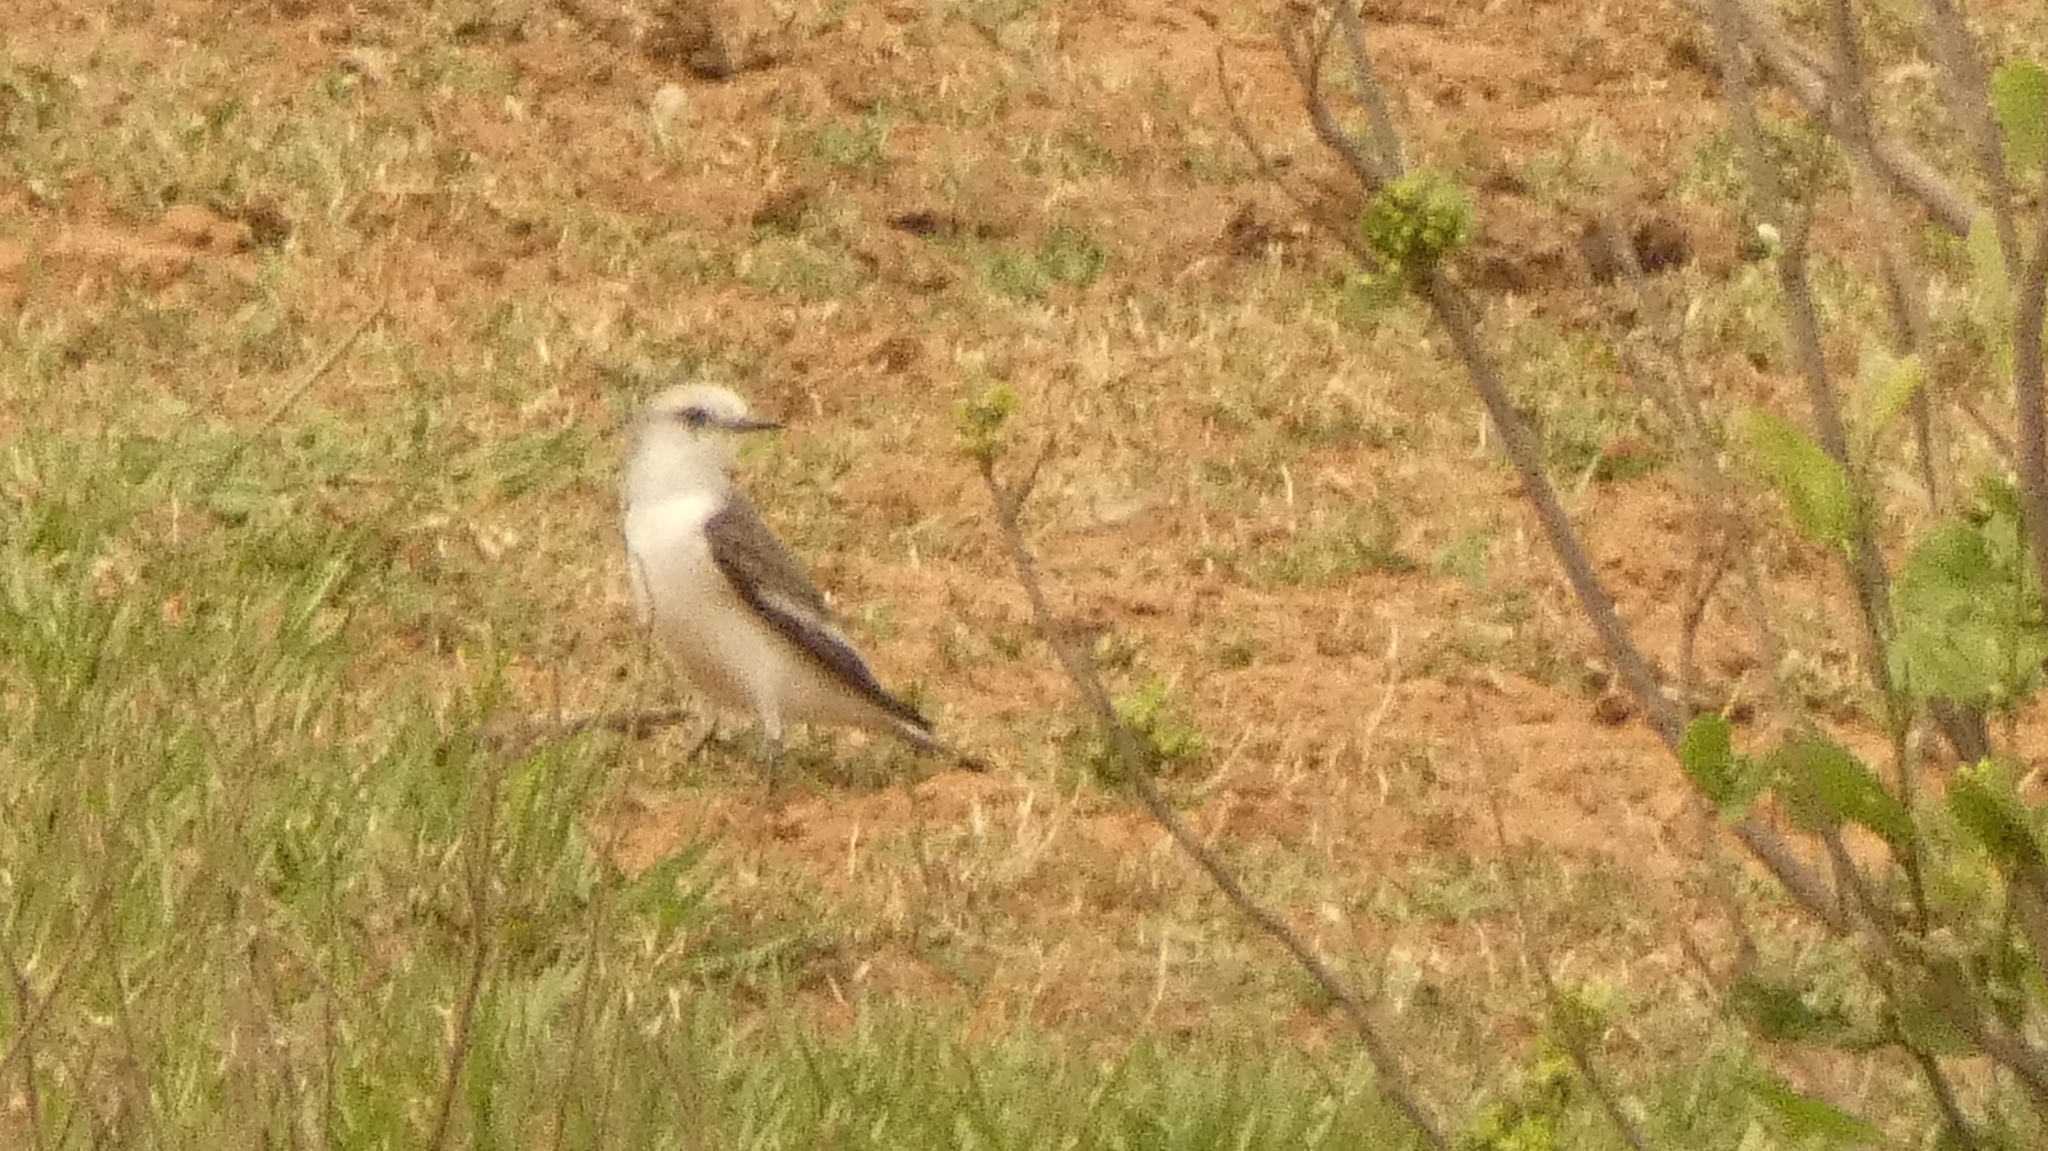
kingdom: Animalia
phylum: Chordata
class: Aves
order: Passeriformes
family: Tyrannidae
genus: Xolmis
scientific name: Xolmis velatus
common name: White-rumped monjita
